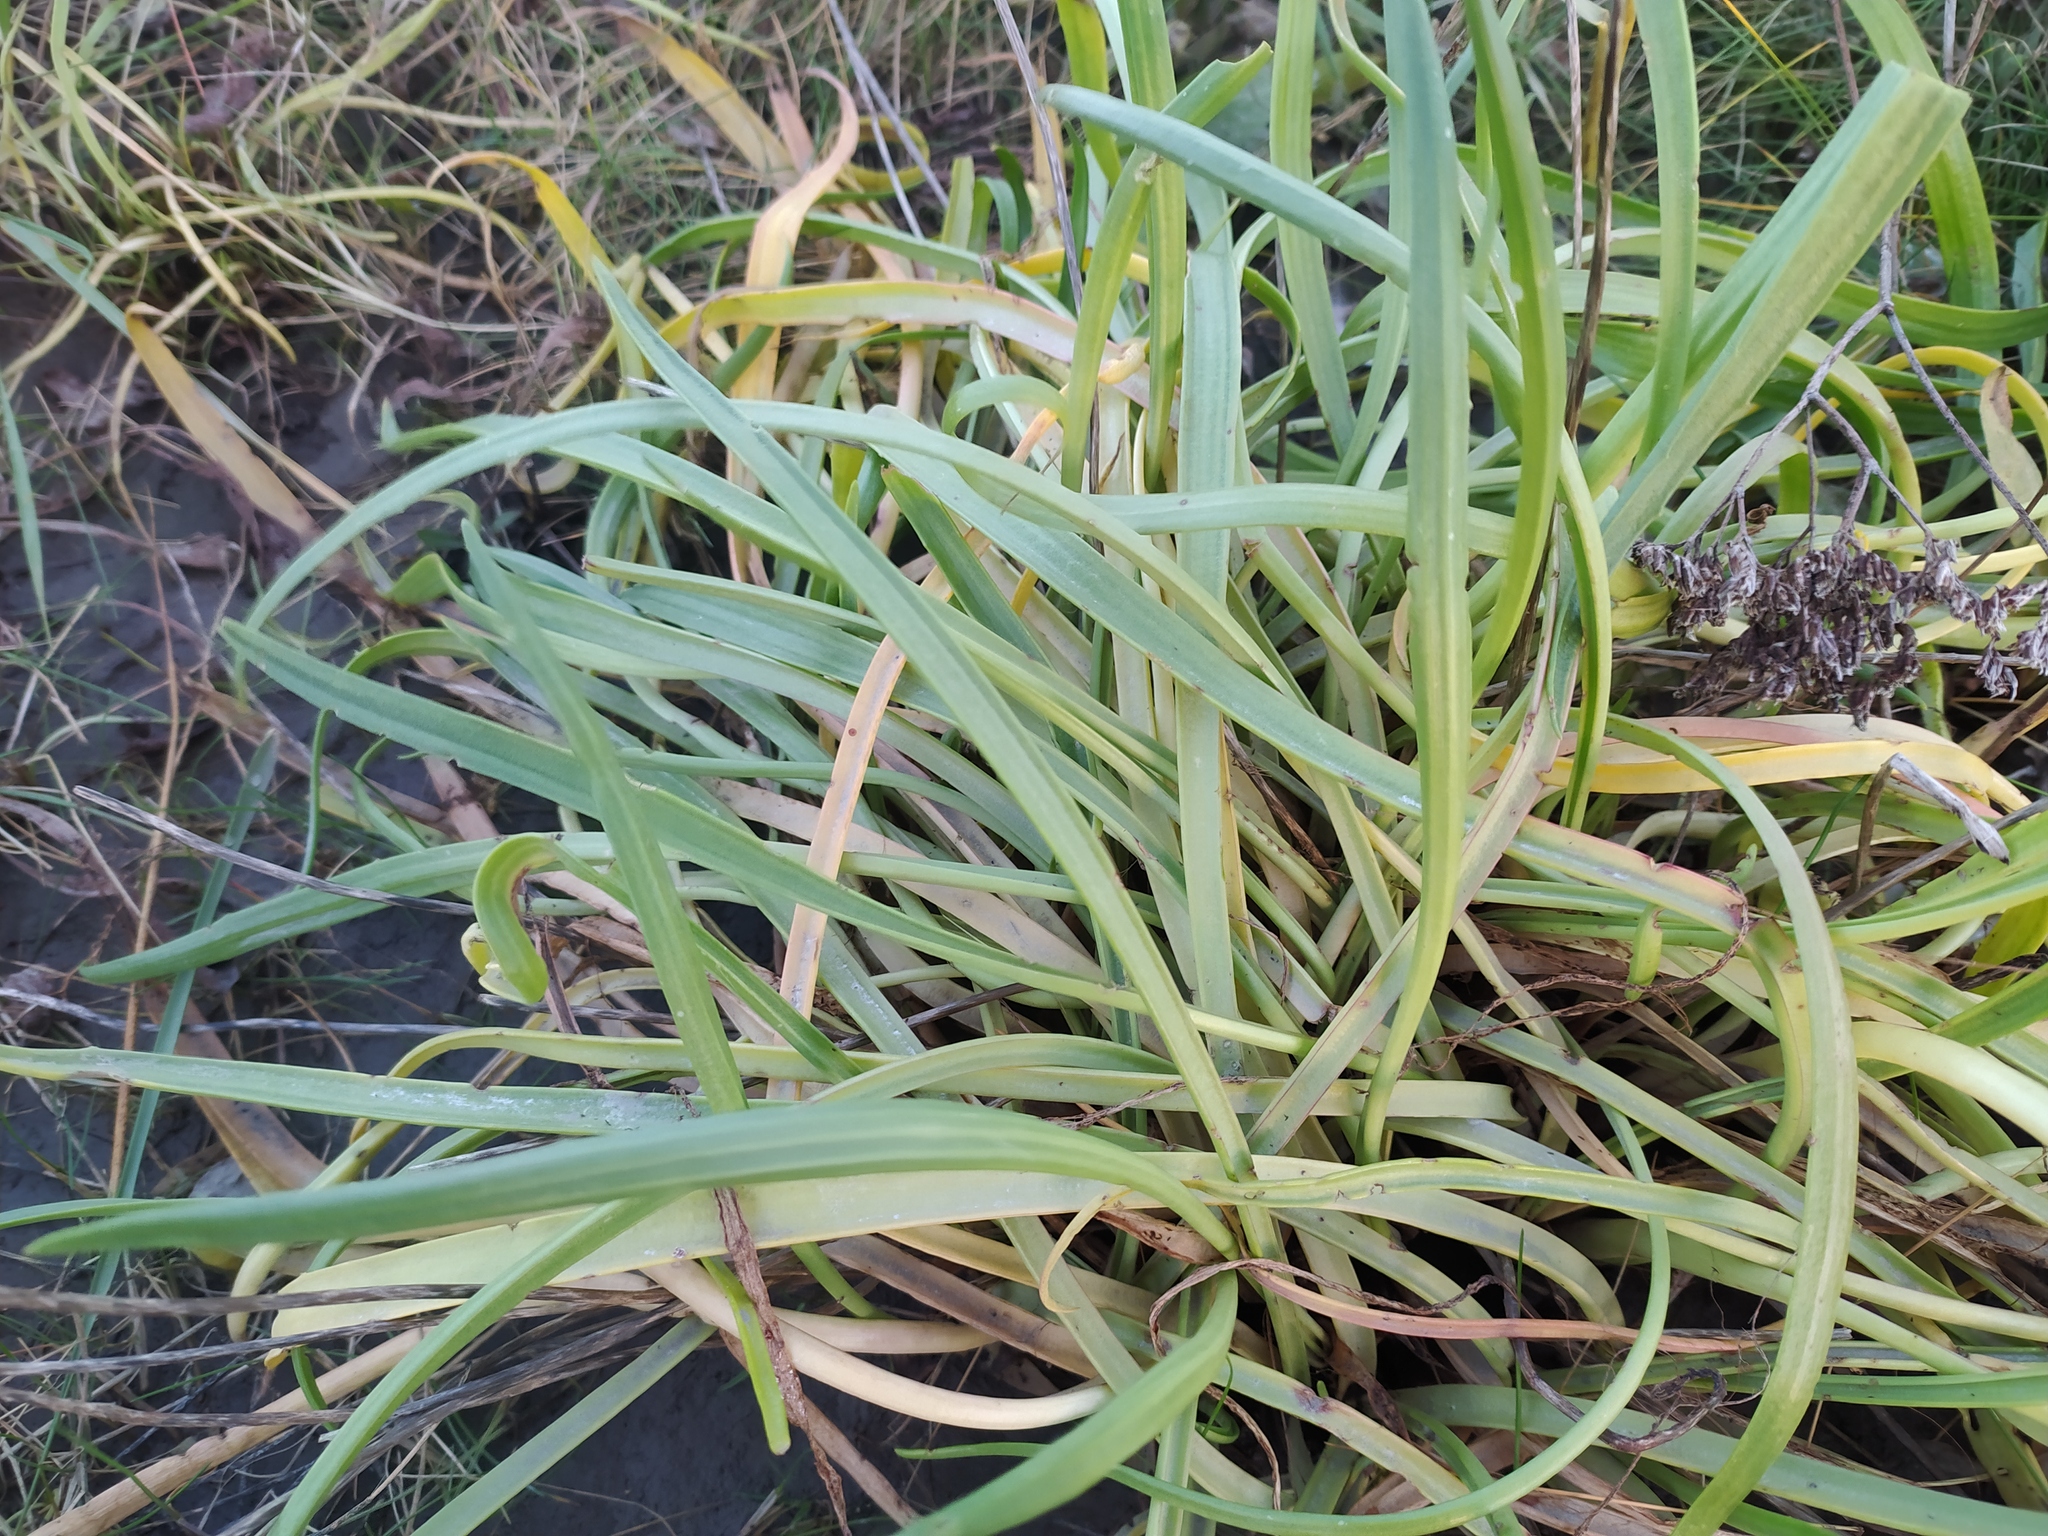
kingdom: Plantae
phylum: Tracheophyta
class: Magnoliopsida
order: Lamiales
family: Plantaginaceae
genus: Plantago
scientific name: Plantago maritima
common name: Sea plantain
